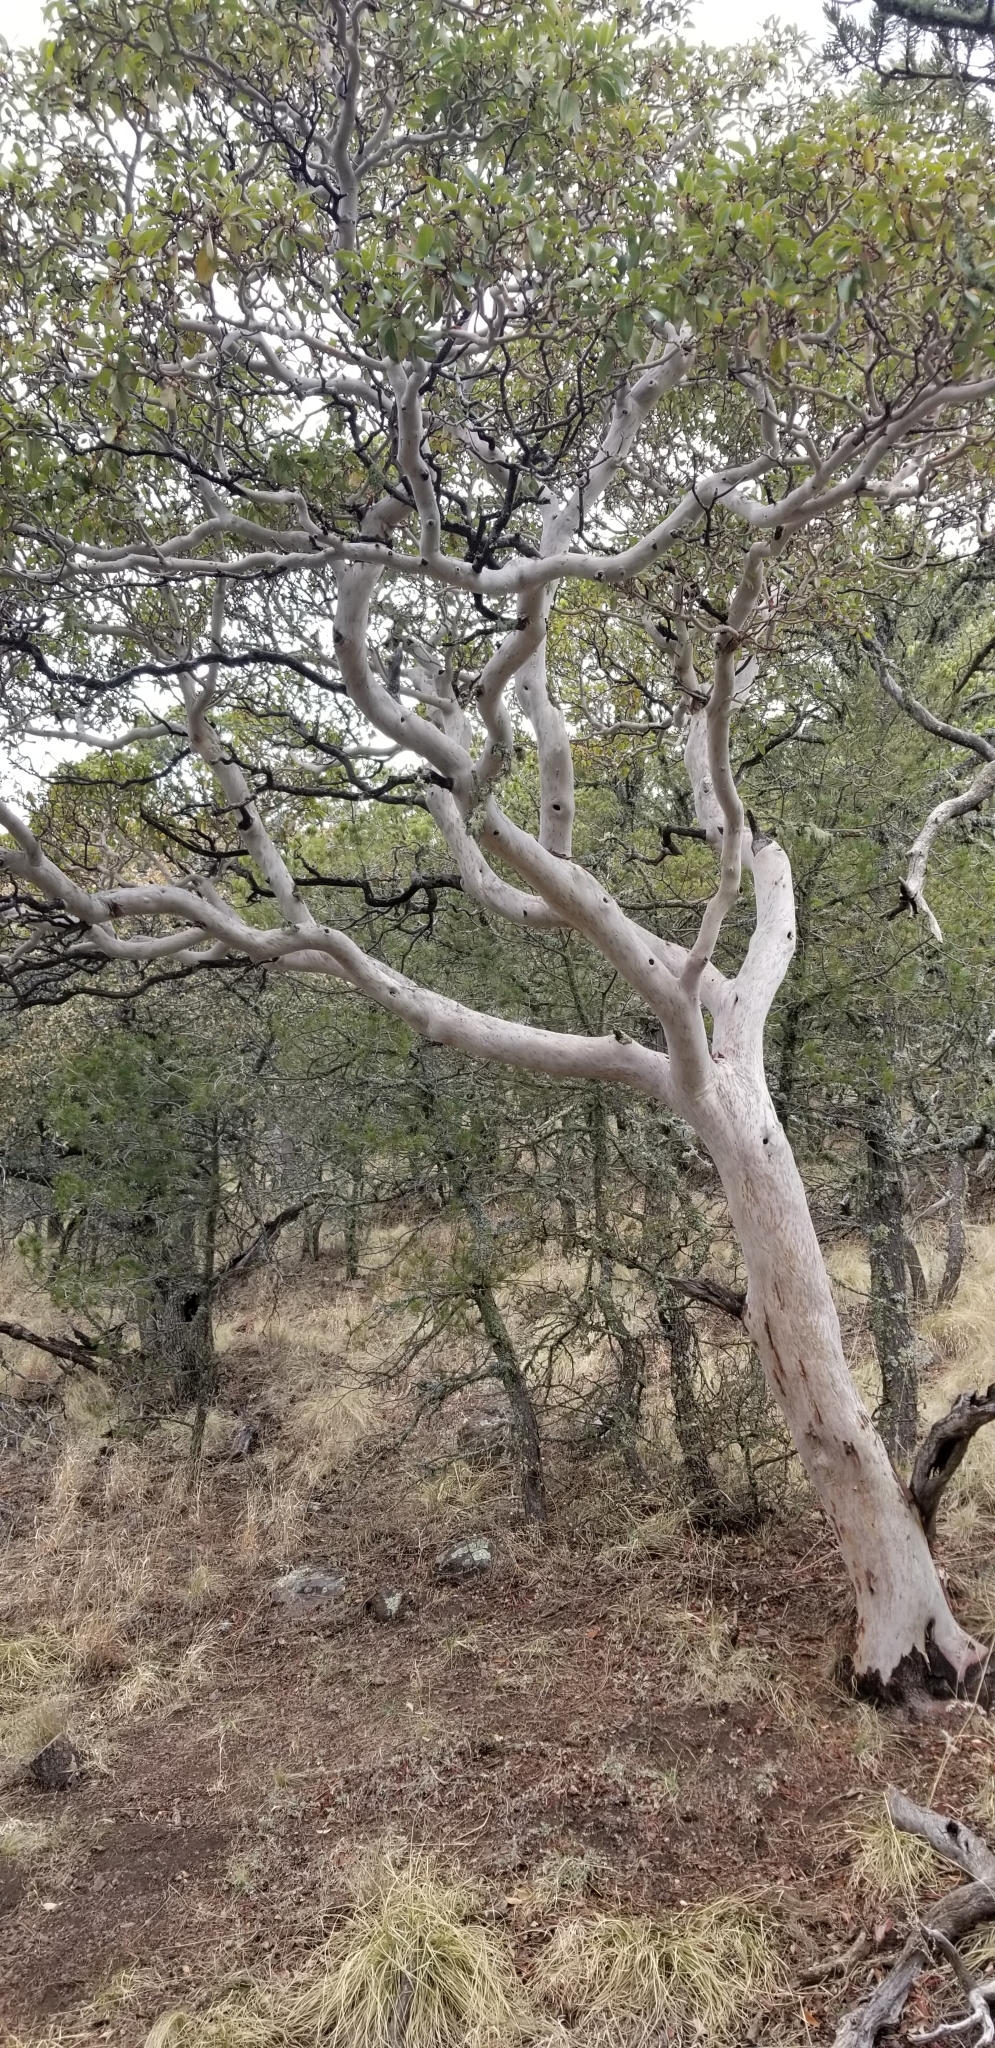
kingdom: Plantae
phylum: Tracheophyta
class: Magnoliopsida
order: Ericales
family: Ericaceae
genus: Arbutus
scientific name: Arbutus xalapensis
